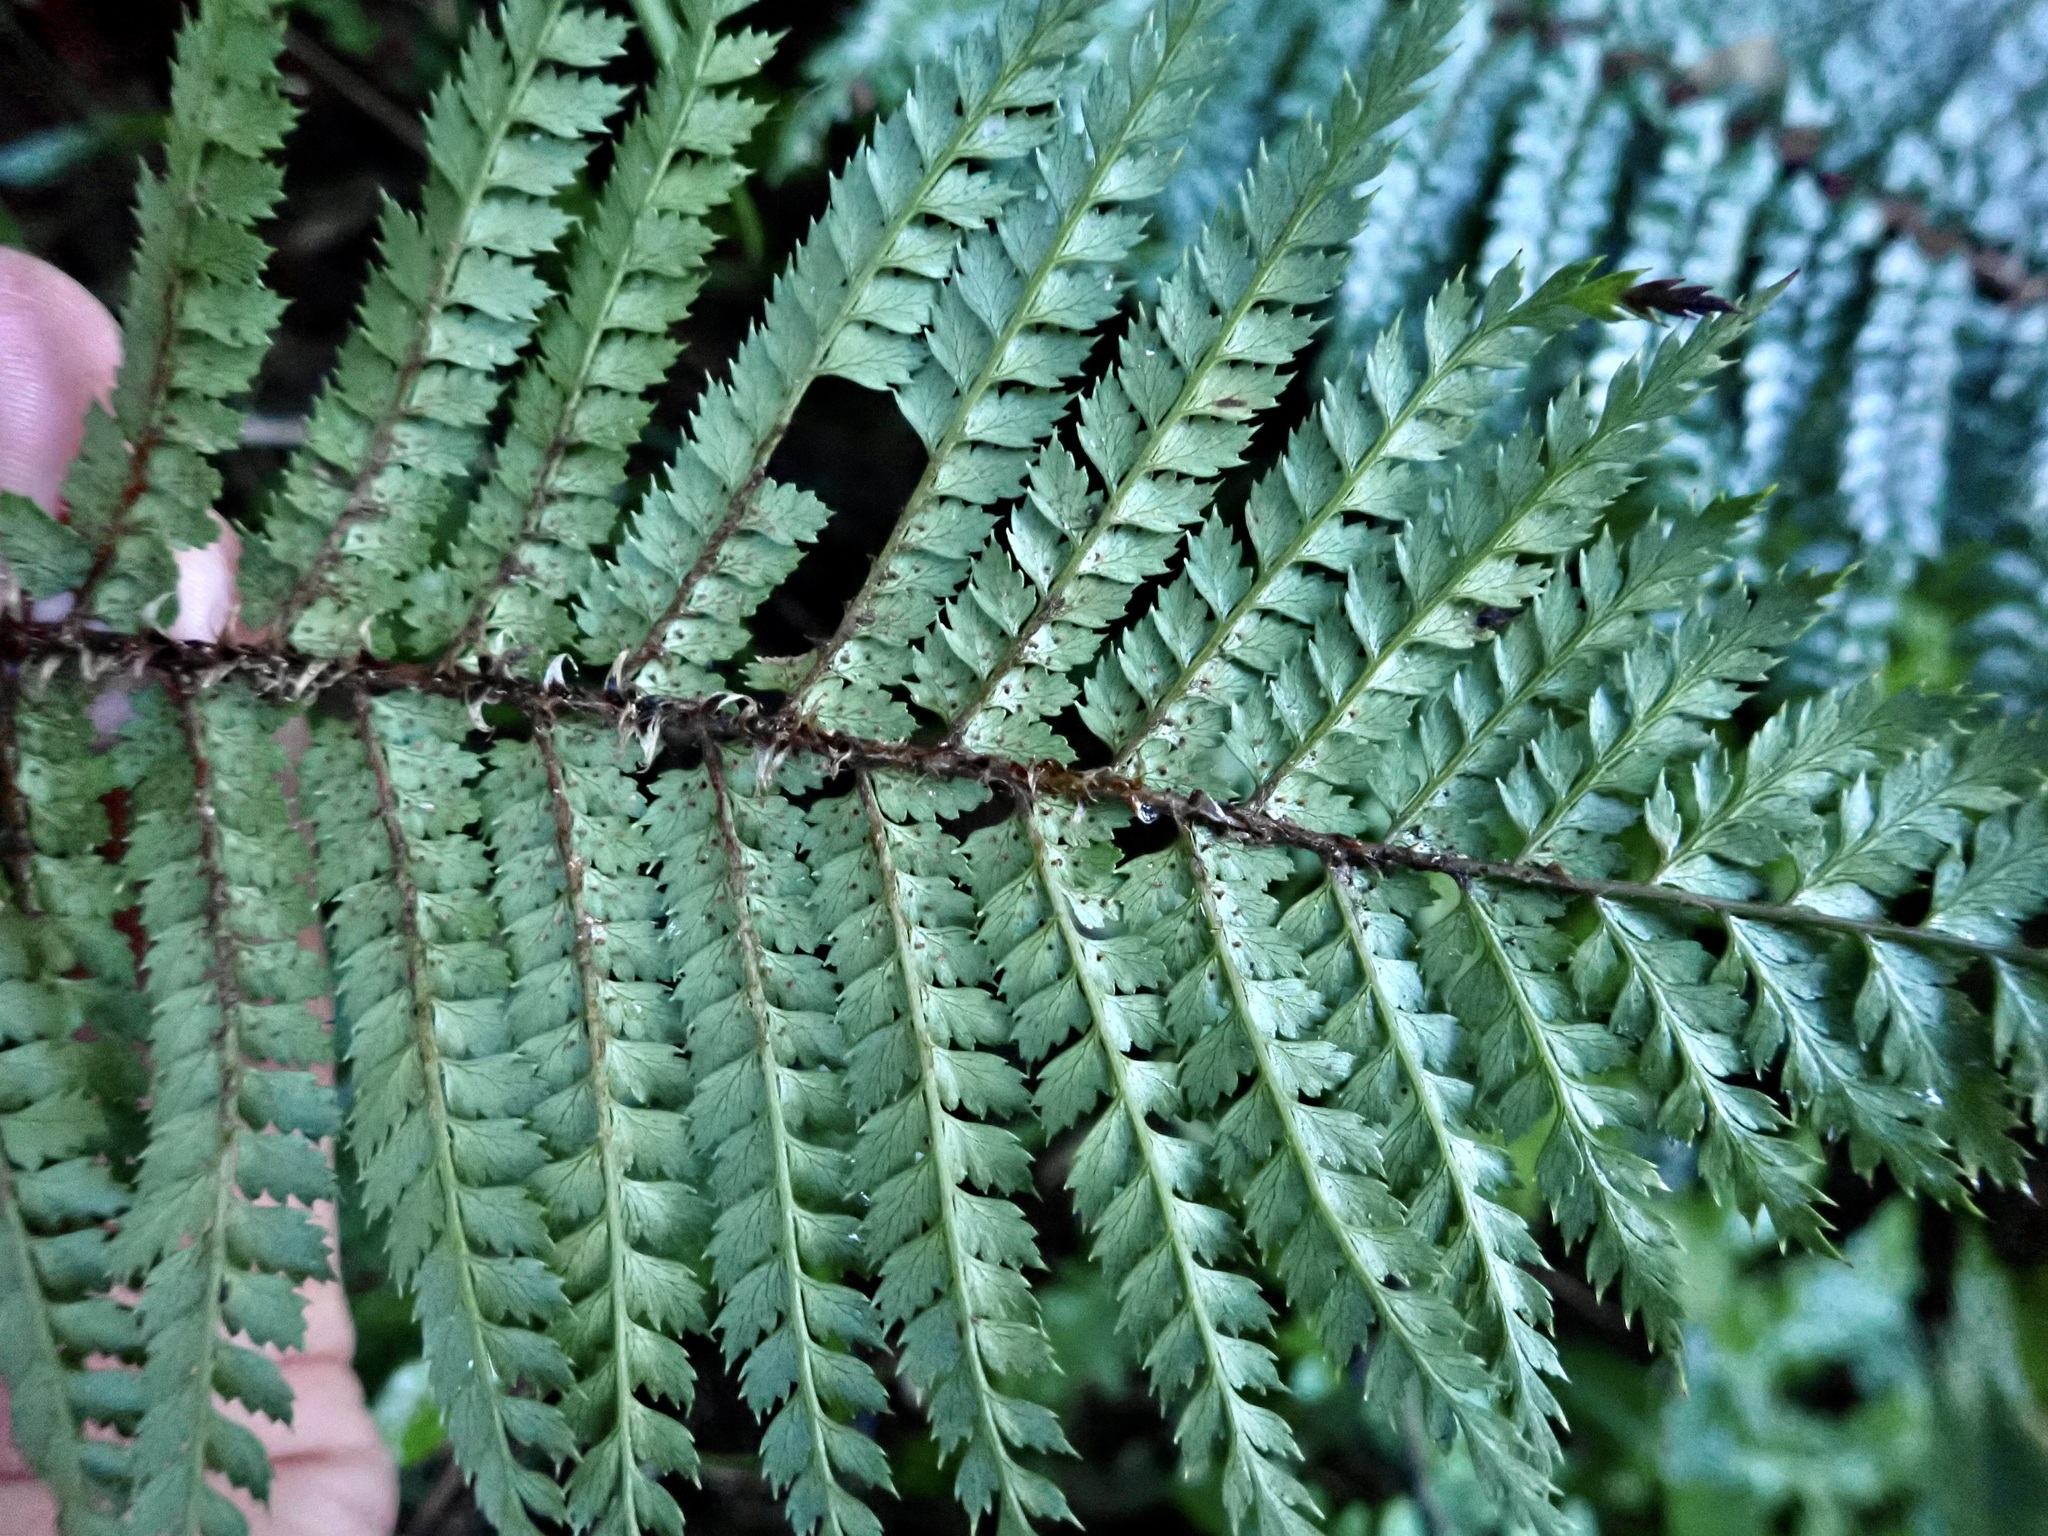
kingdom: Plantae
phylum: Tracheophyta
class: Polypodiopsida
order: Polypodiales
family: Dryopteridaceae
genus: Polystichum
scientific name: Polystichum vestitum
